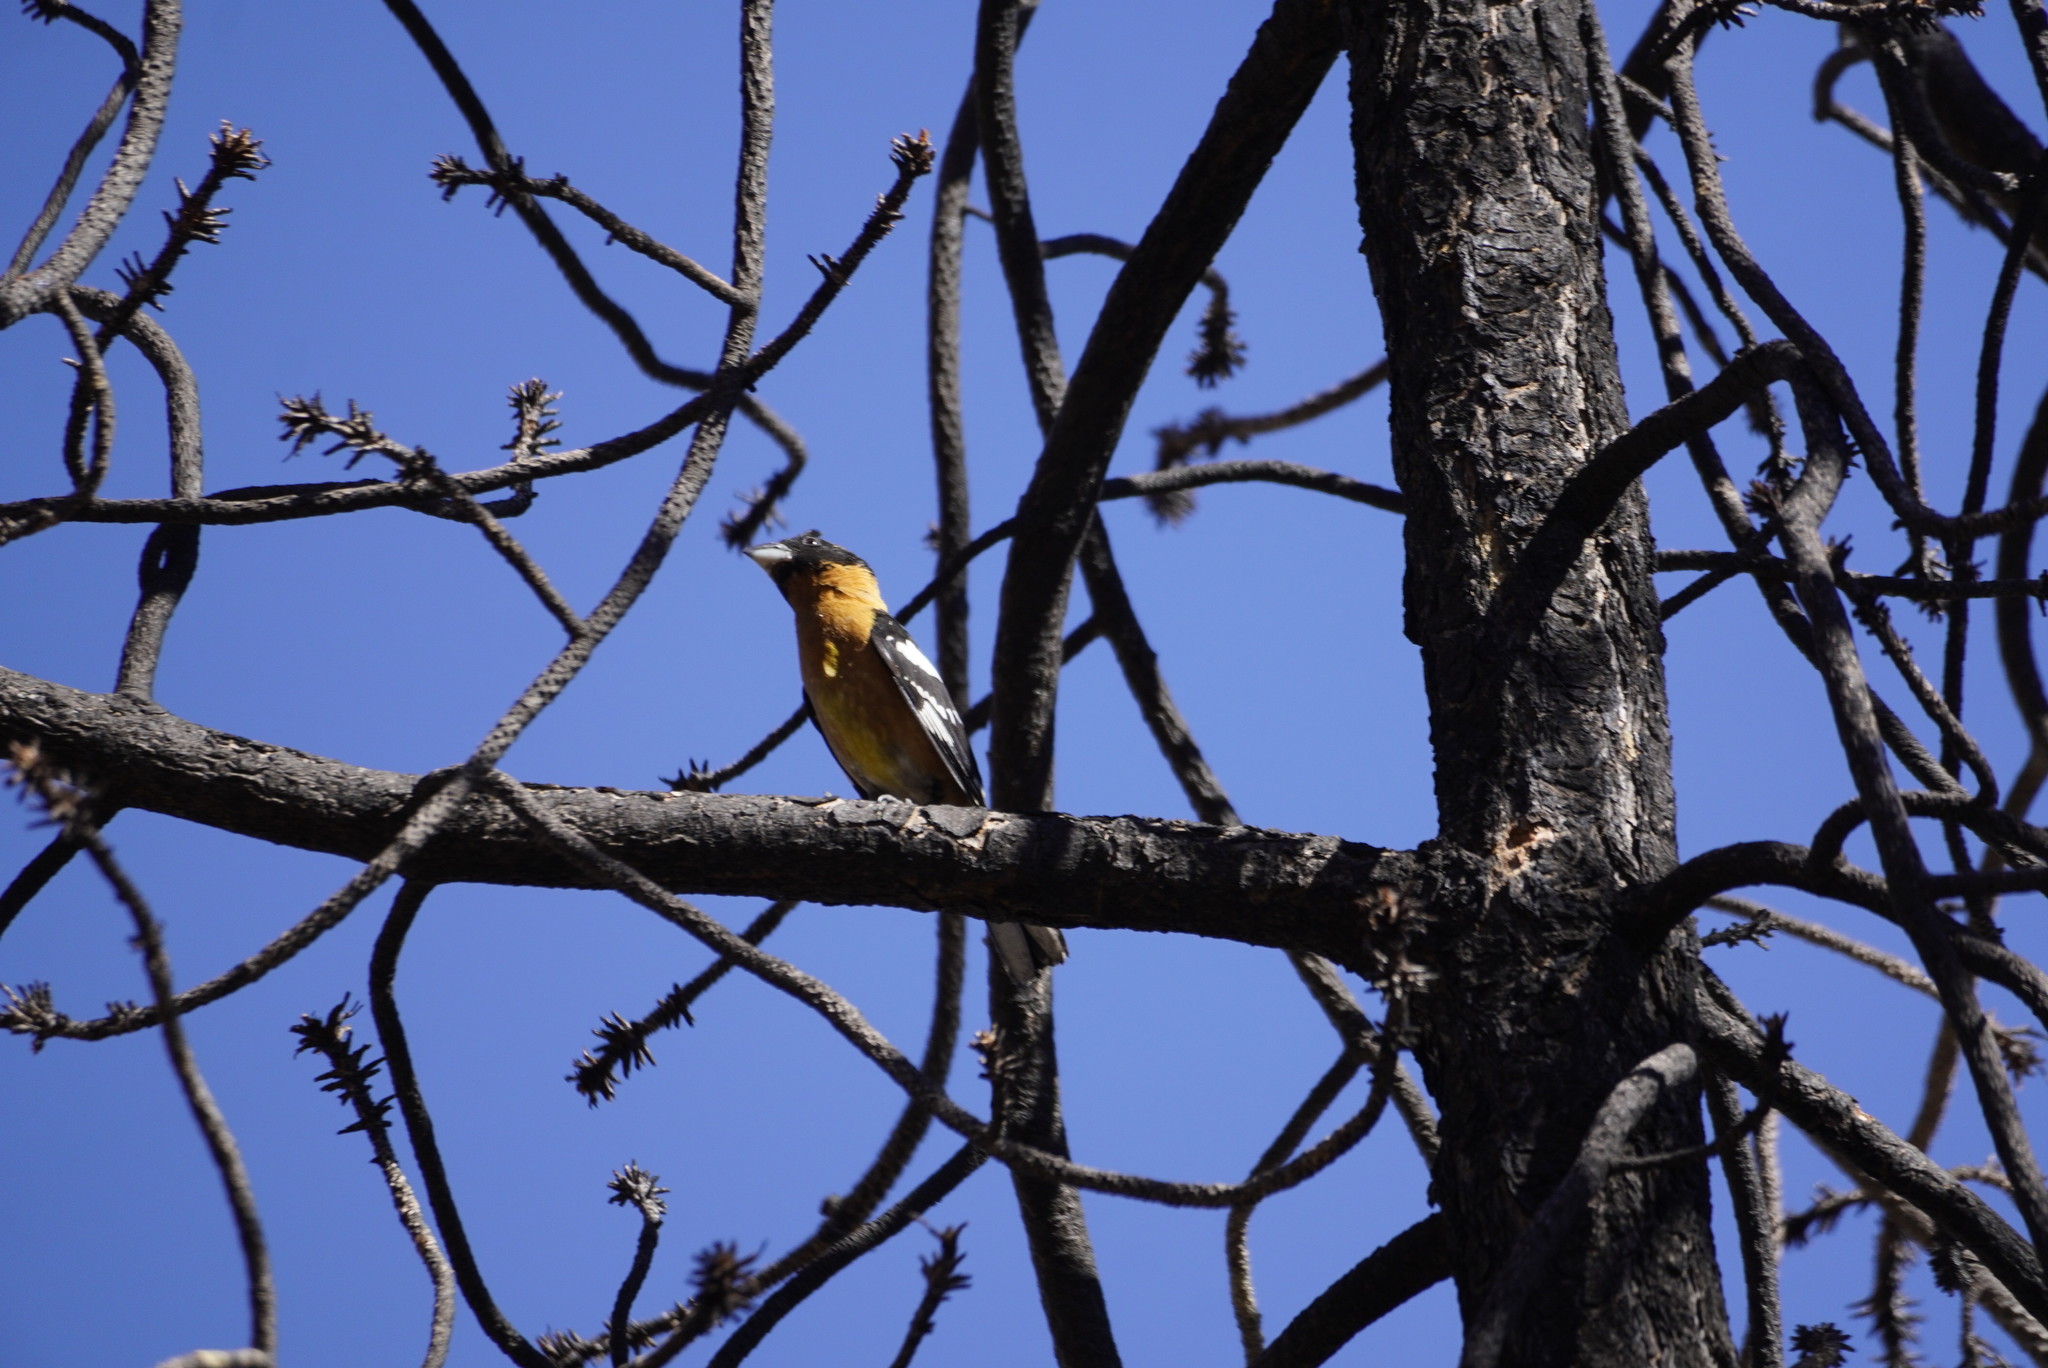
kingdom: Animalia
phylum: Chordata
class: Aves
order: Passeriformes
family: Cardinalidae
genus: Pheucticus
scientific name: Pheucticus melanocephalus
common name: Black-headed grosbeak
